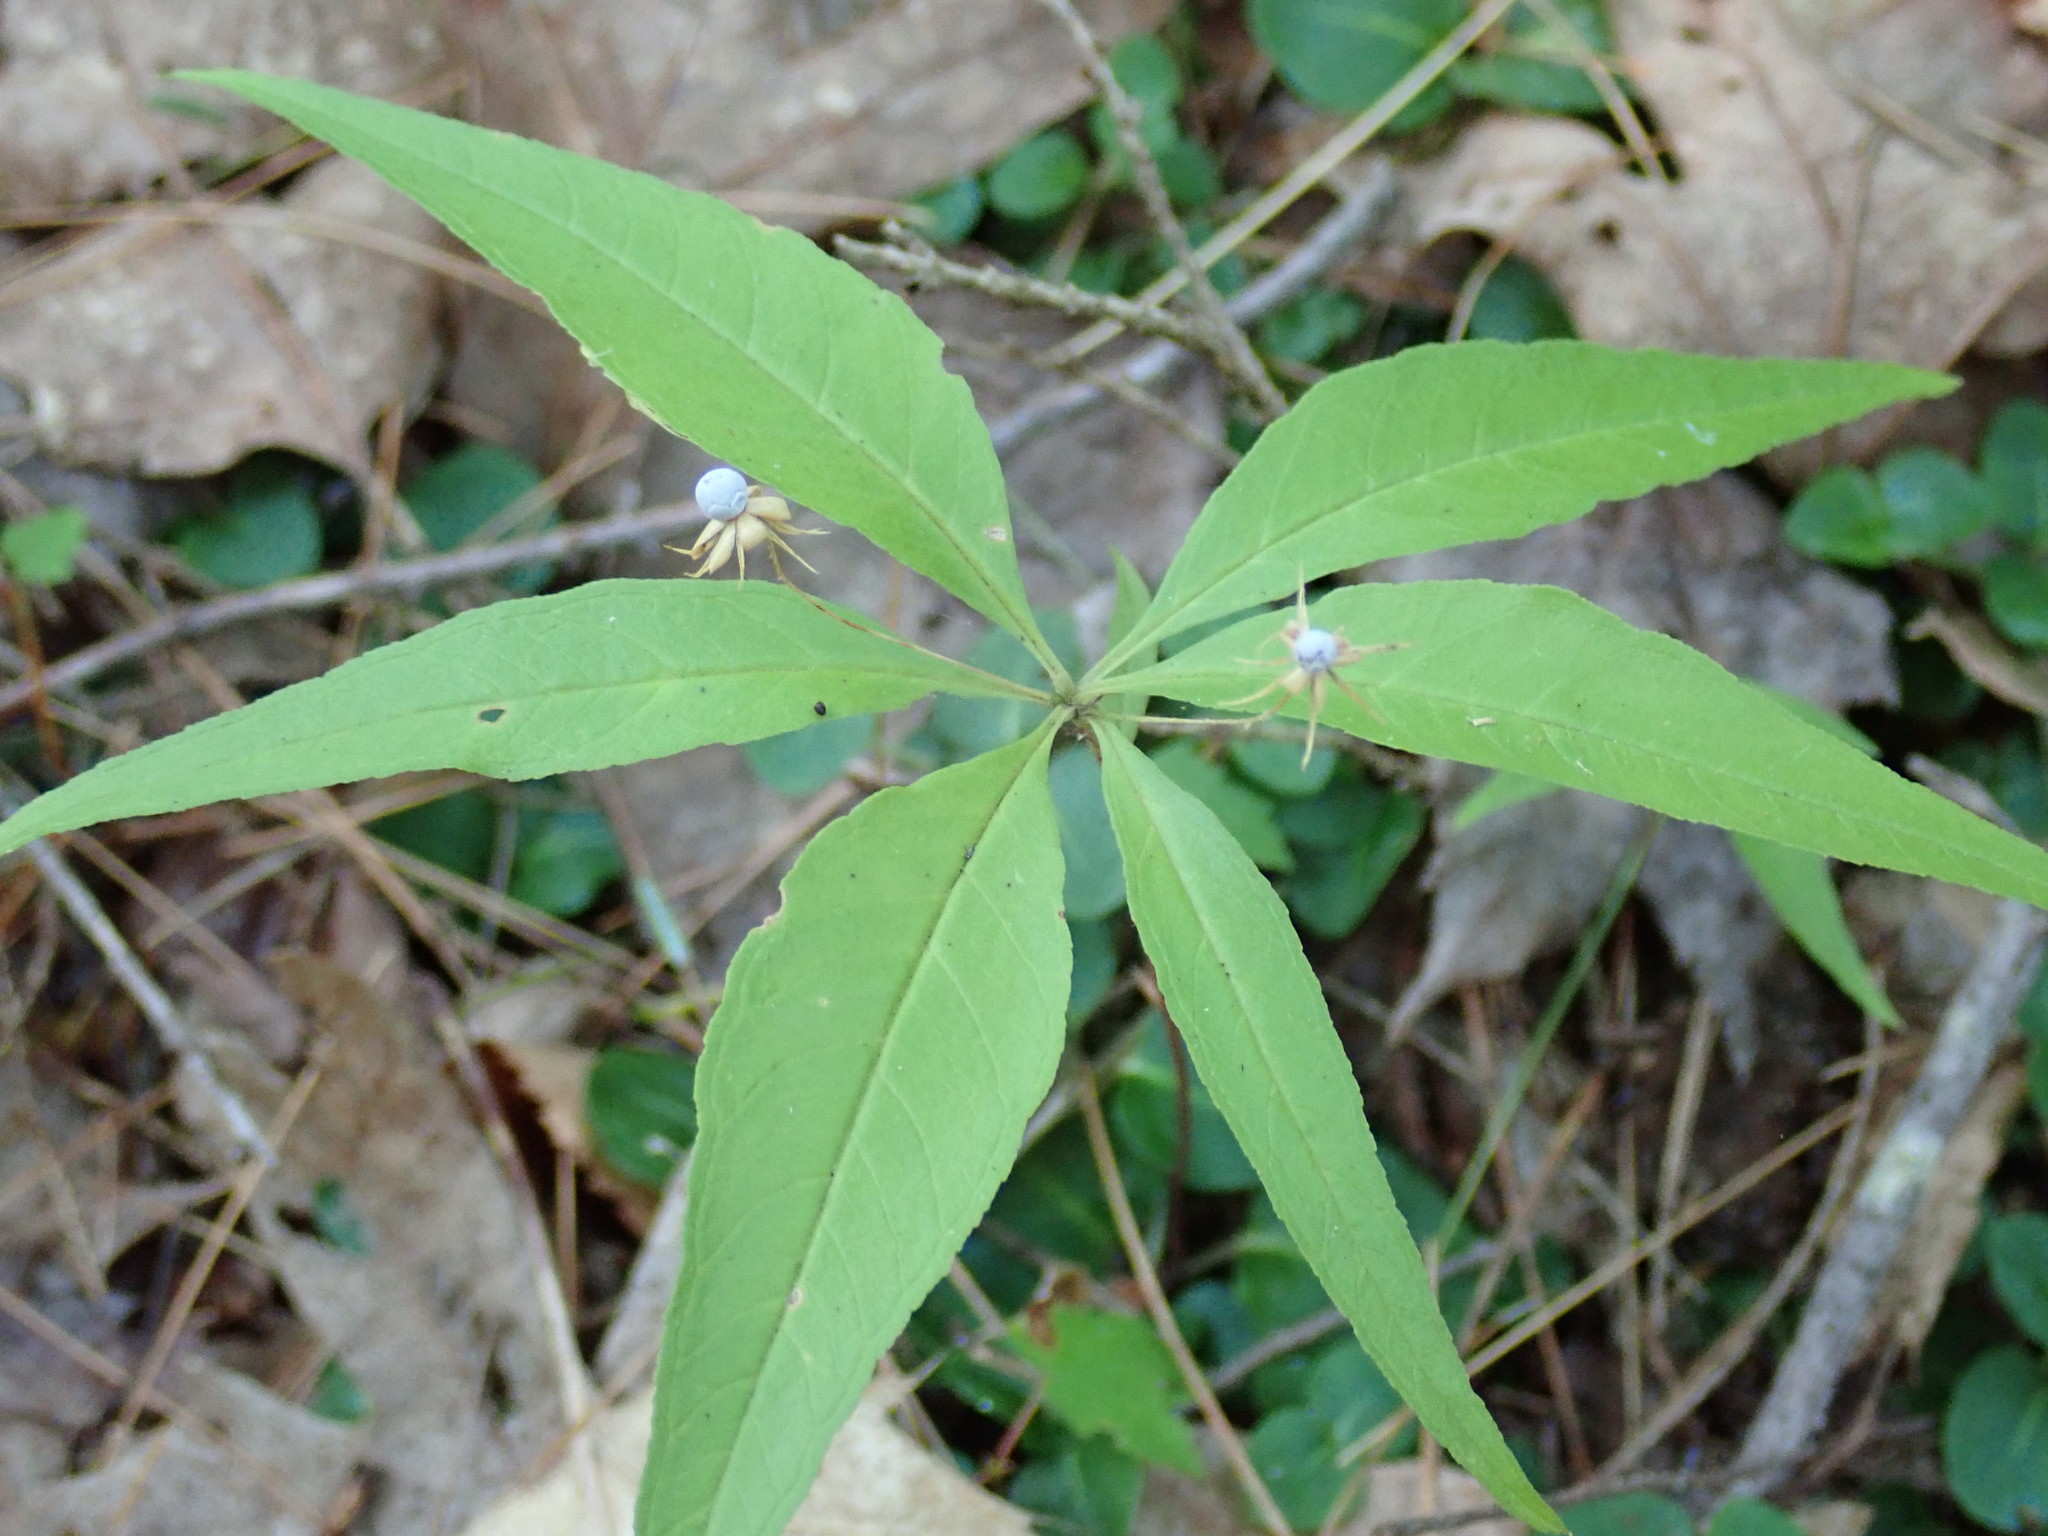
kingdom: Plantae
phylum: Tracheophyta
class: Magnoliopsida
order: Ericales
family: Primulaceae
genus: Lysimachia
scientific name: Lysimachia borealis
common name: American starflower
